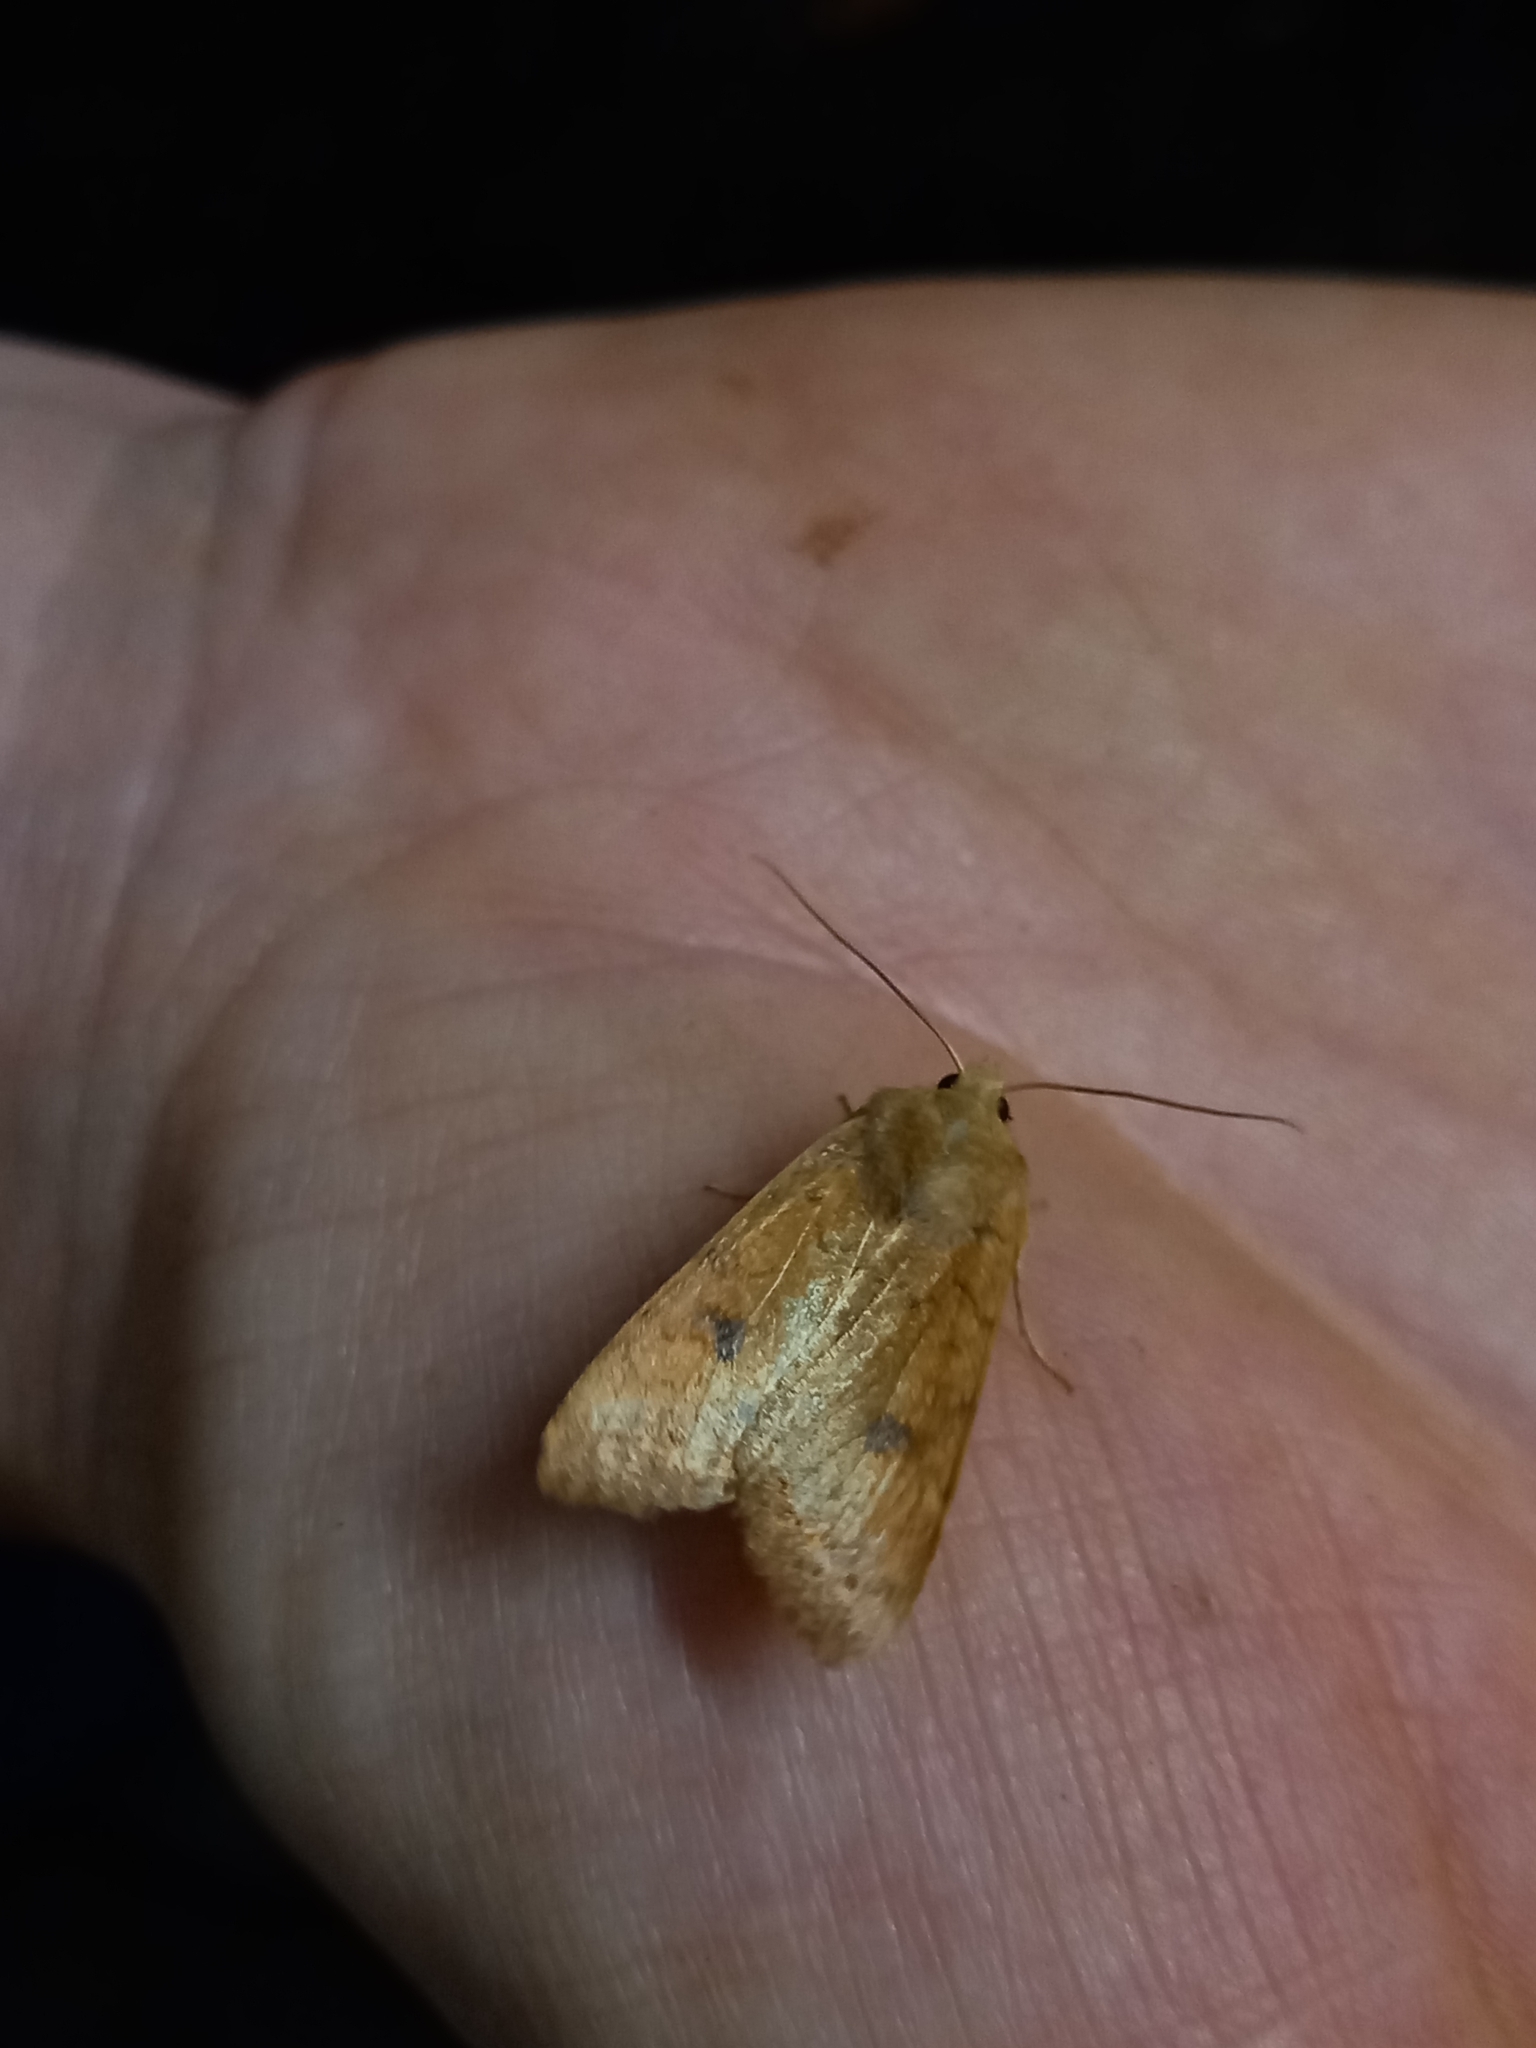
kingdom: Animalia
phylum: Arthropoda
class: Insecta
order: Lepidoptera
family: Noctuidae
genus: Sunira
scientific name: Sunira circellaris
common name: Brick
